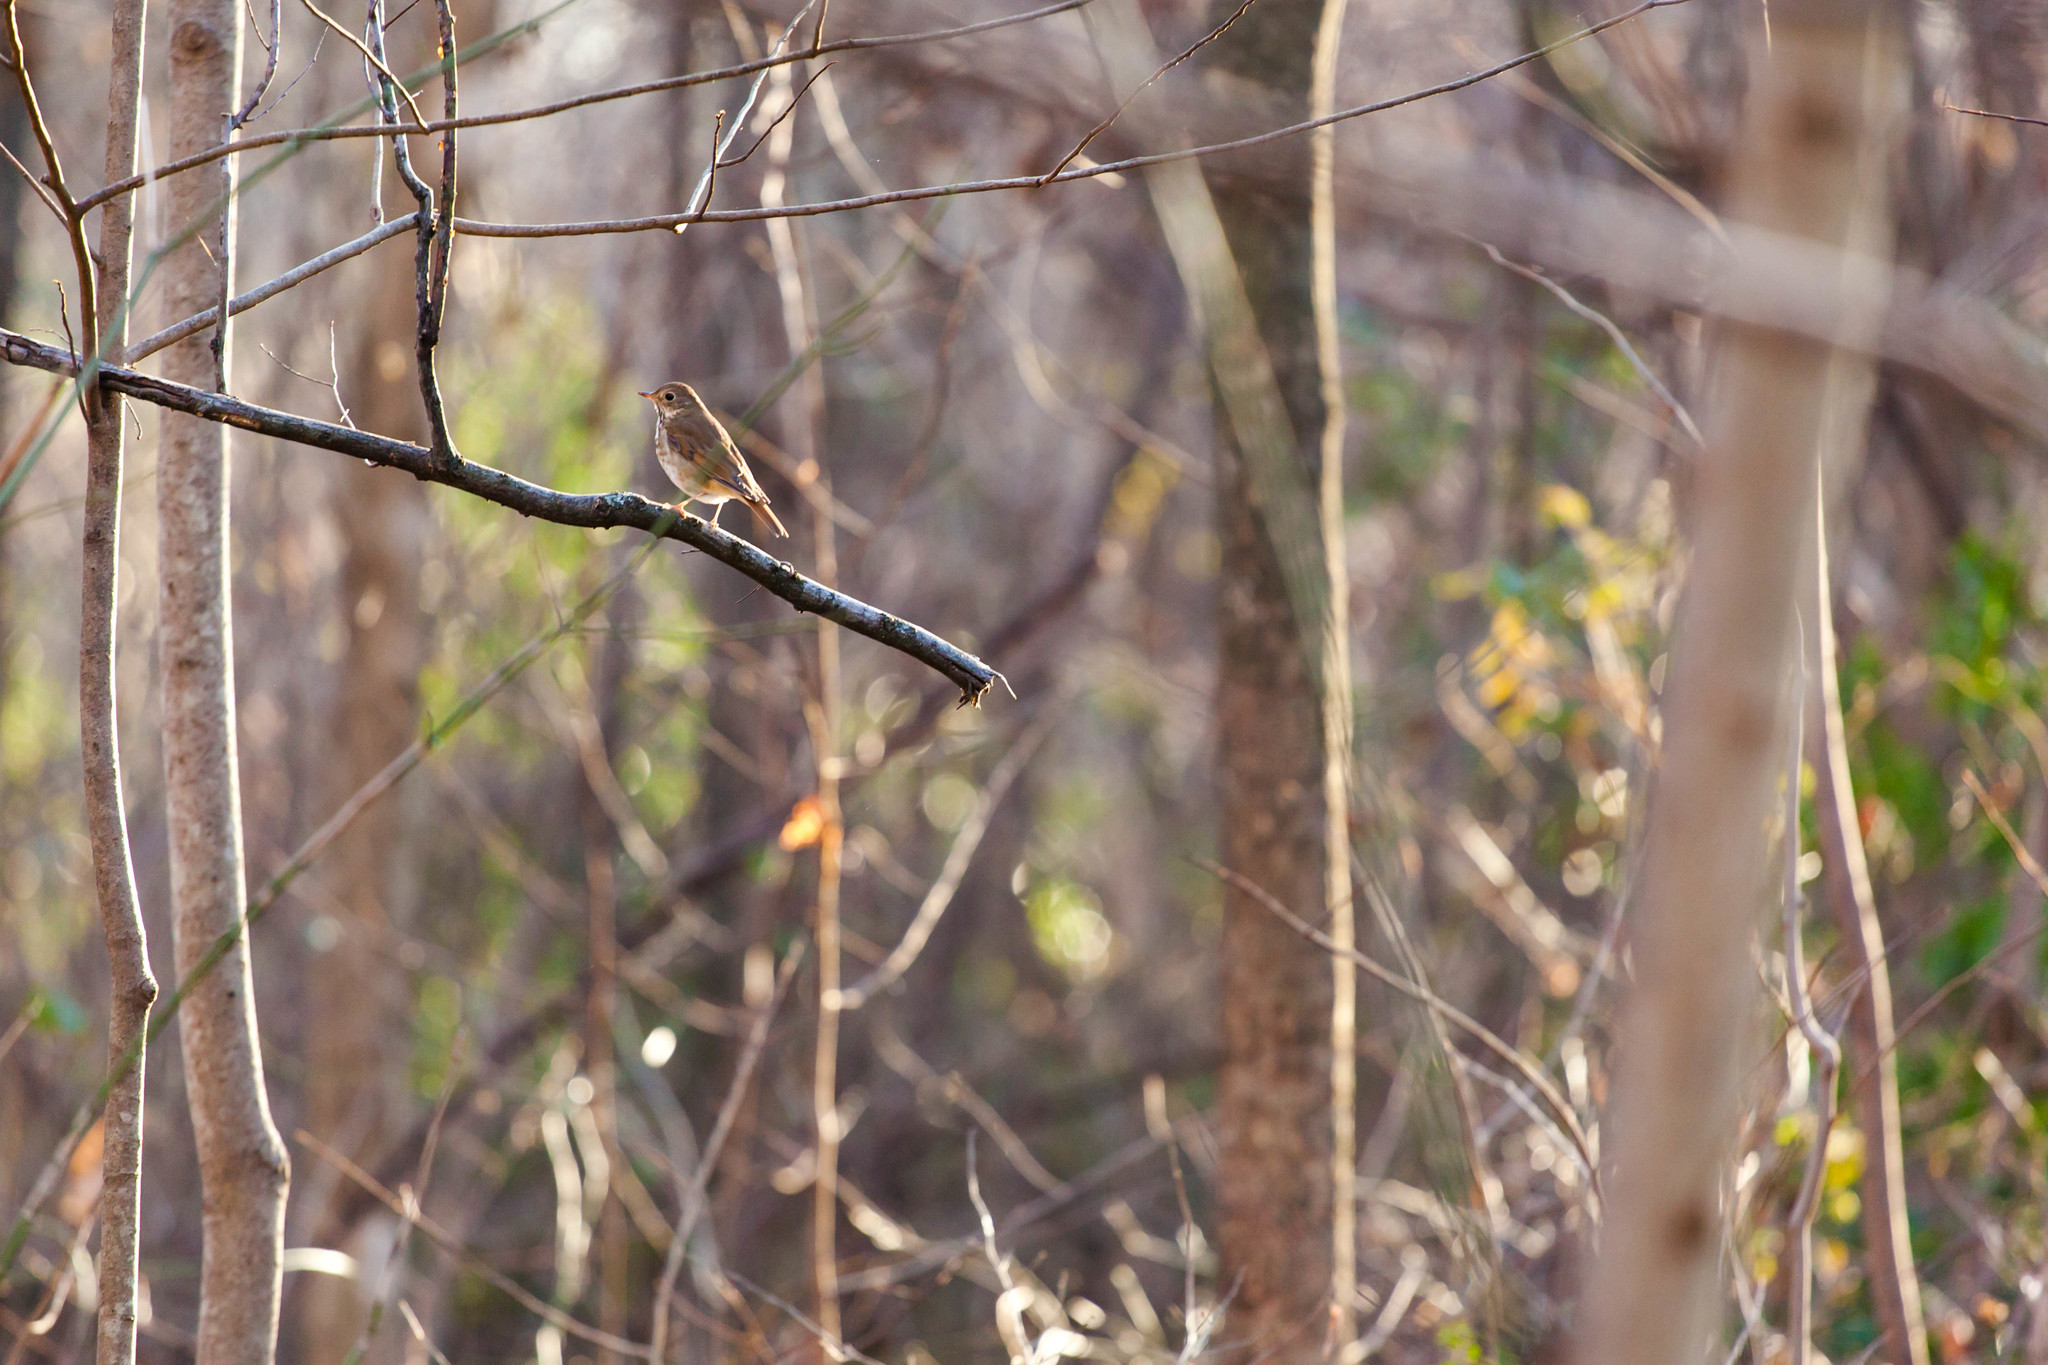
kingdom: Animalia
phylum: Chordata
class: Aves
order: Passeriformes
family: Turdidae
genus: Catharus
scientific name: Catharus guttatus
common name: Hermit thrush
